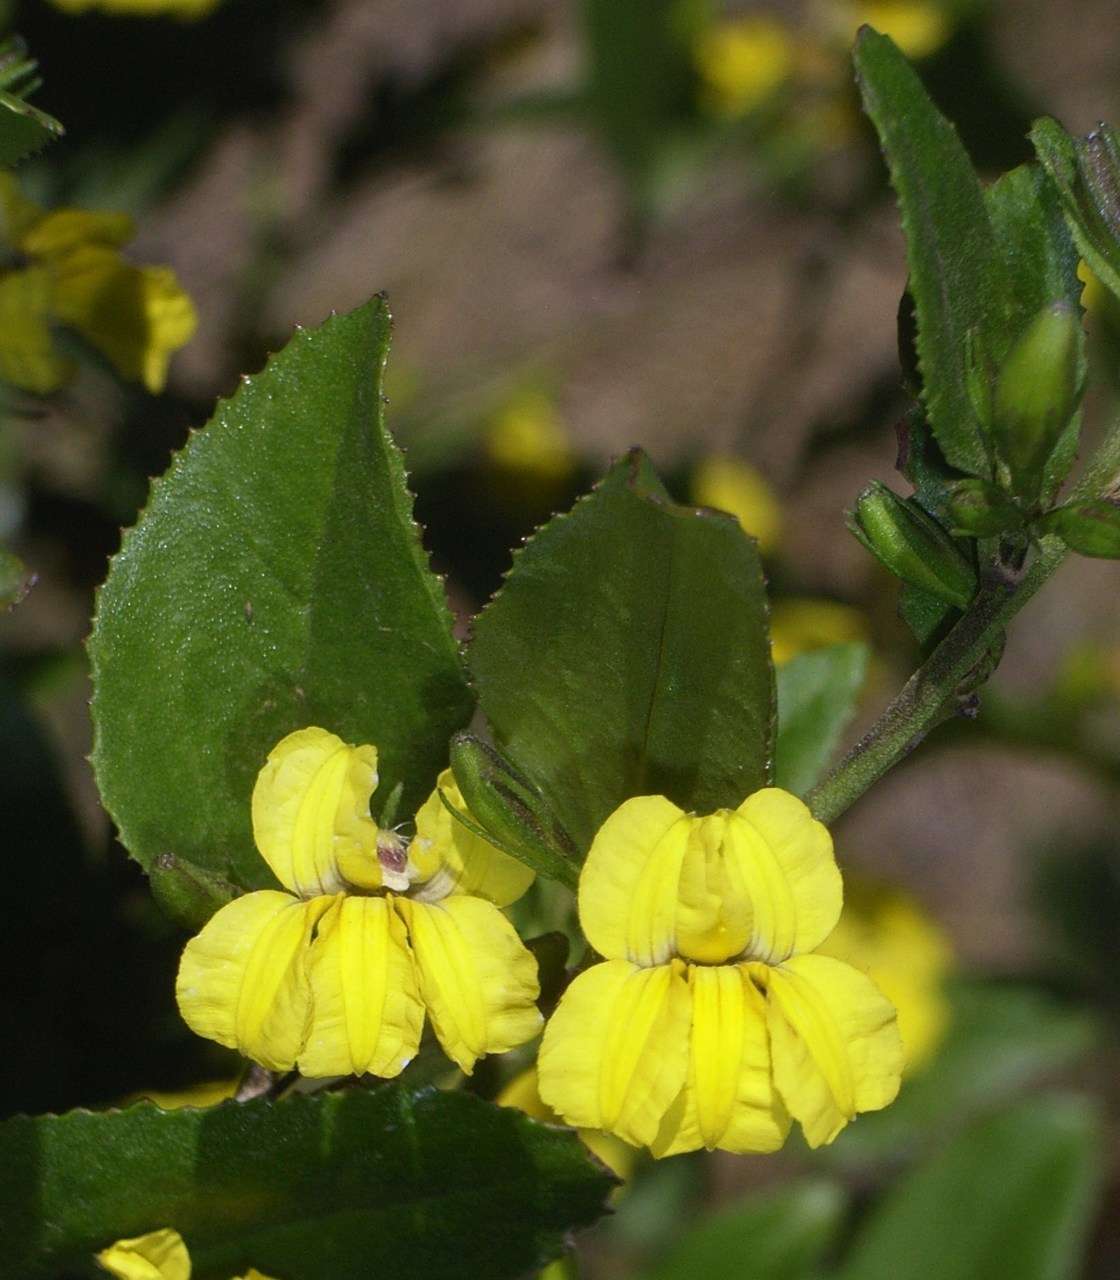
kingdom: Plantae
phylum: Tracheophyta
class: Magnoliopsida
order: Asterales
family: Goodeniaceae
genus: Goodenia
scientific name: Goodenia ovata
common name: Hop goodenia
